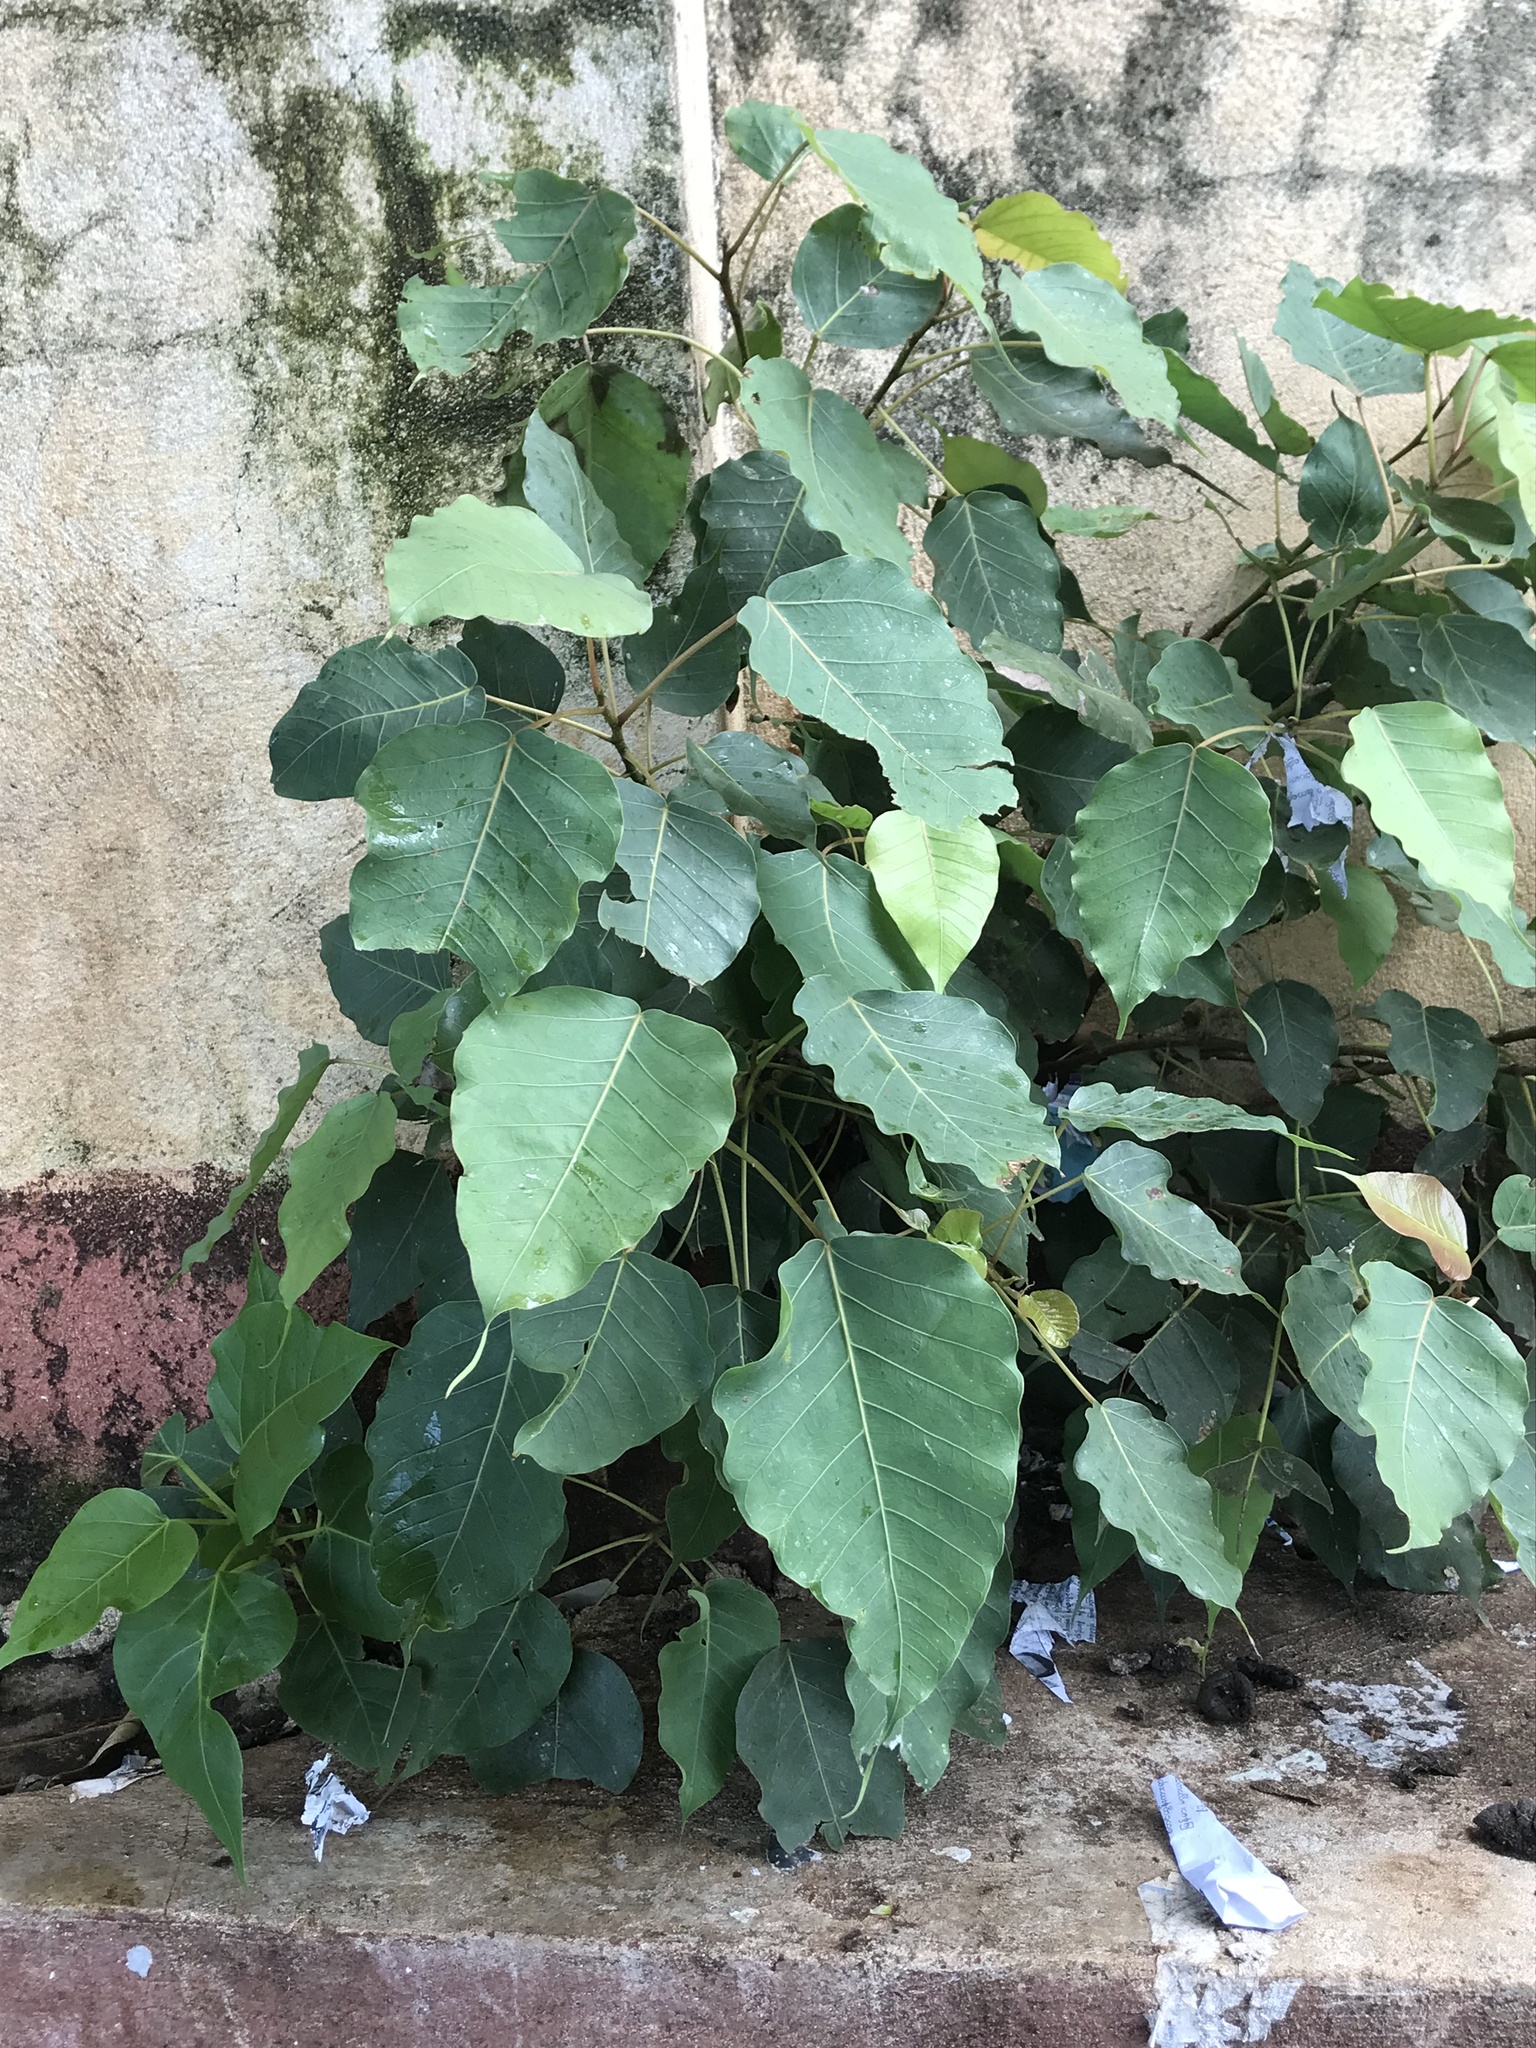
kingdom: Plantae
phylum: Tracheophyta
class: Magnoliopsida
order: Rosales
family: Moraceae
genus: Ficus
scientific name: Ficus religiosa
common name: Bodhi tree
